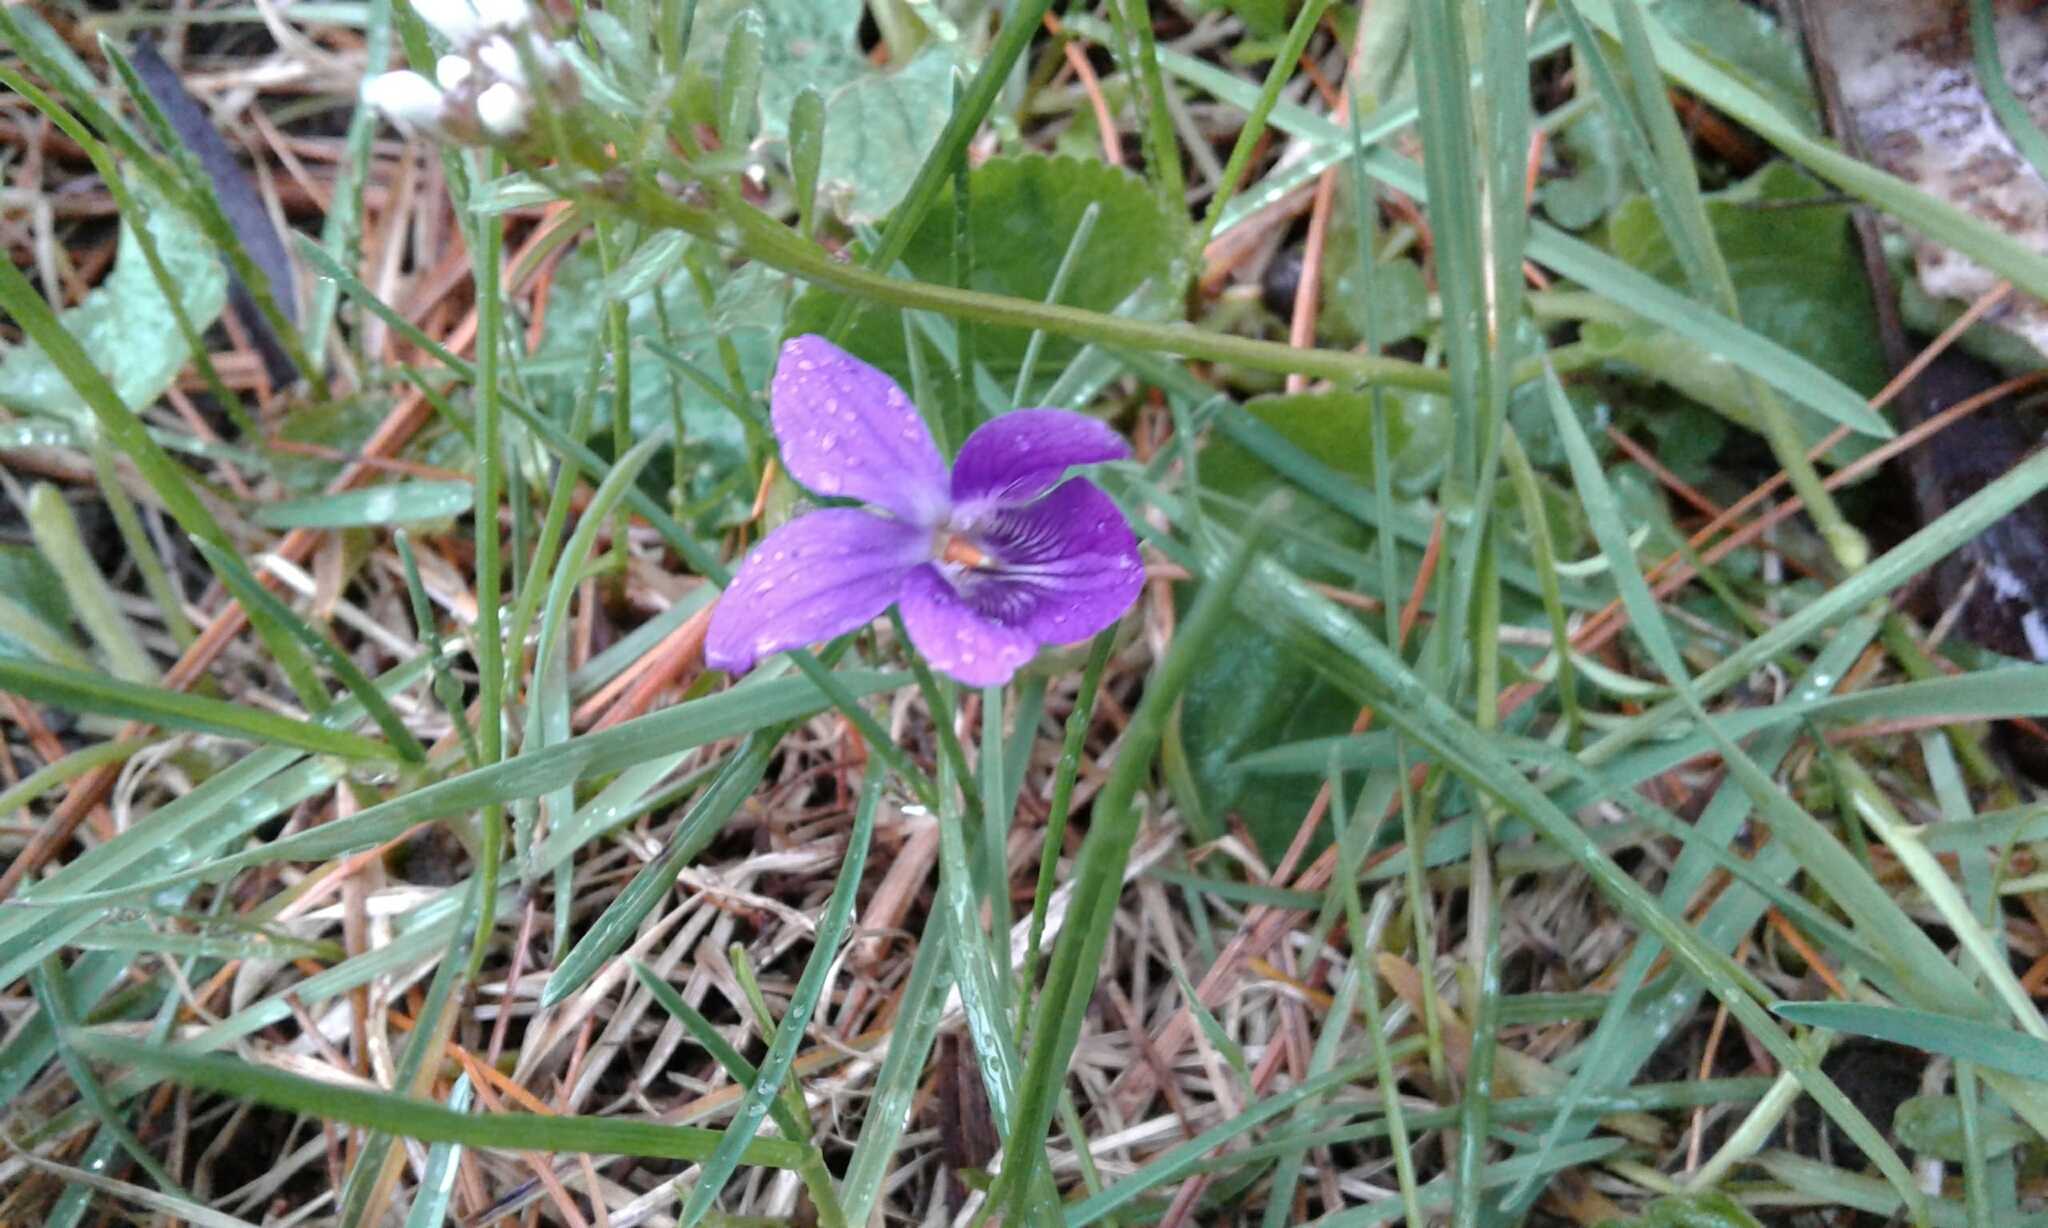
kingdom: Plantae
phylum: Tracheophyta
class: Magnoliopsida
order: Malpighiales
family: Violaceae
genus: Viola
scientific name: Viola odorata
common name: Sweet violet
